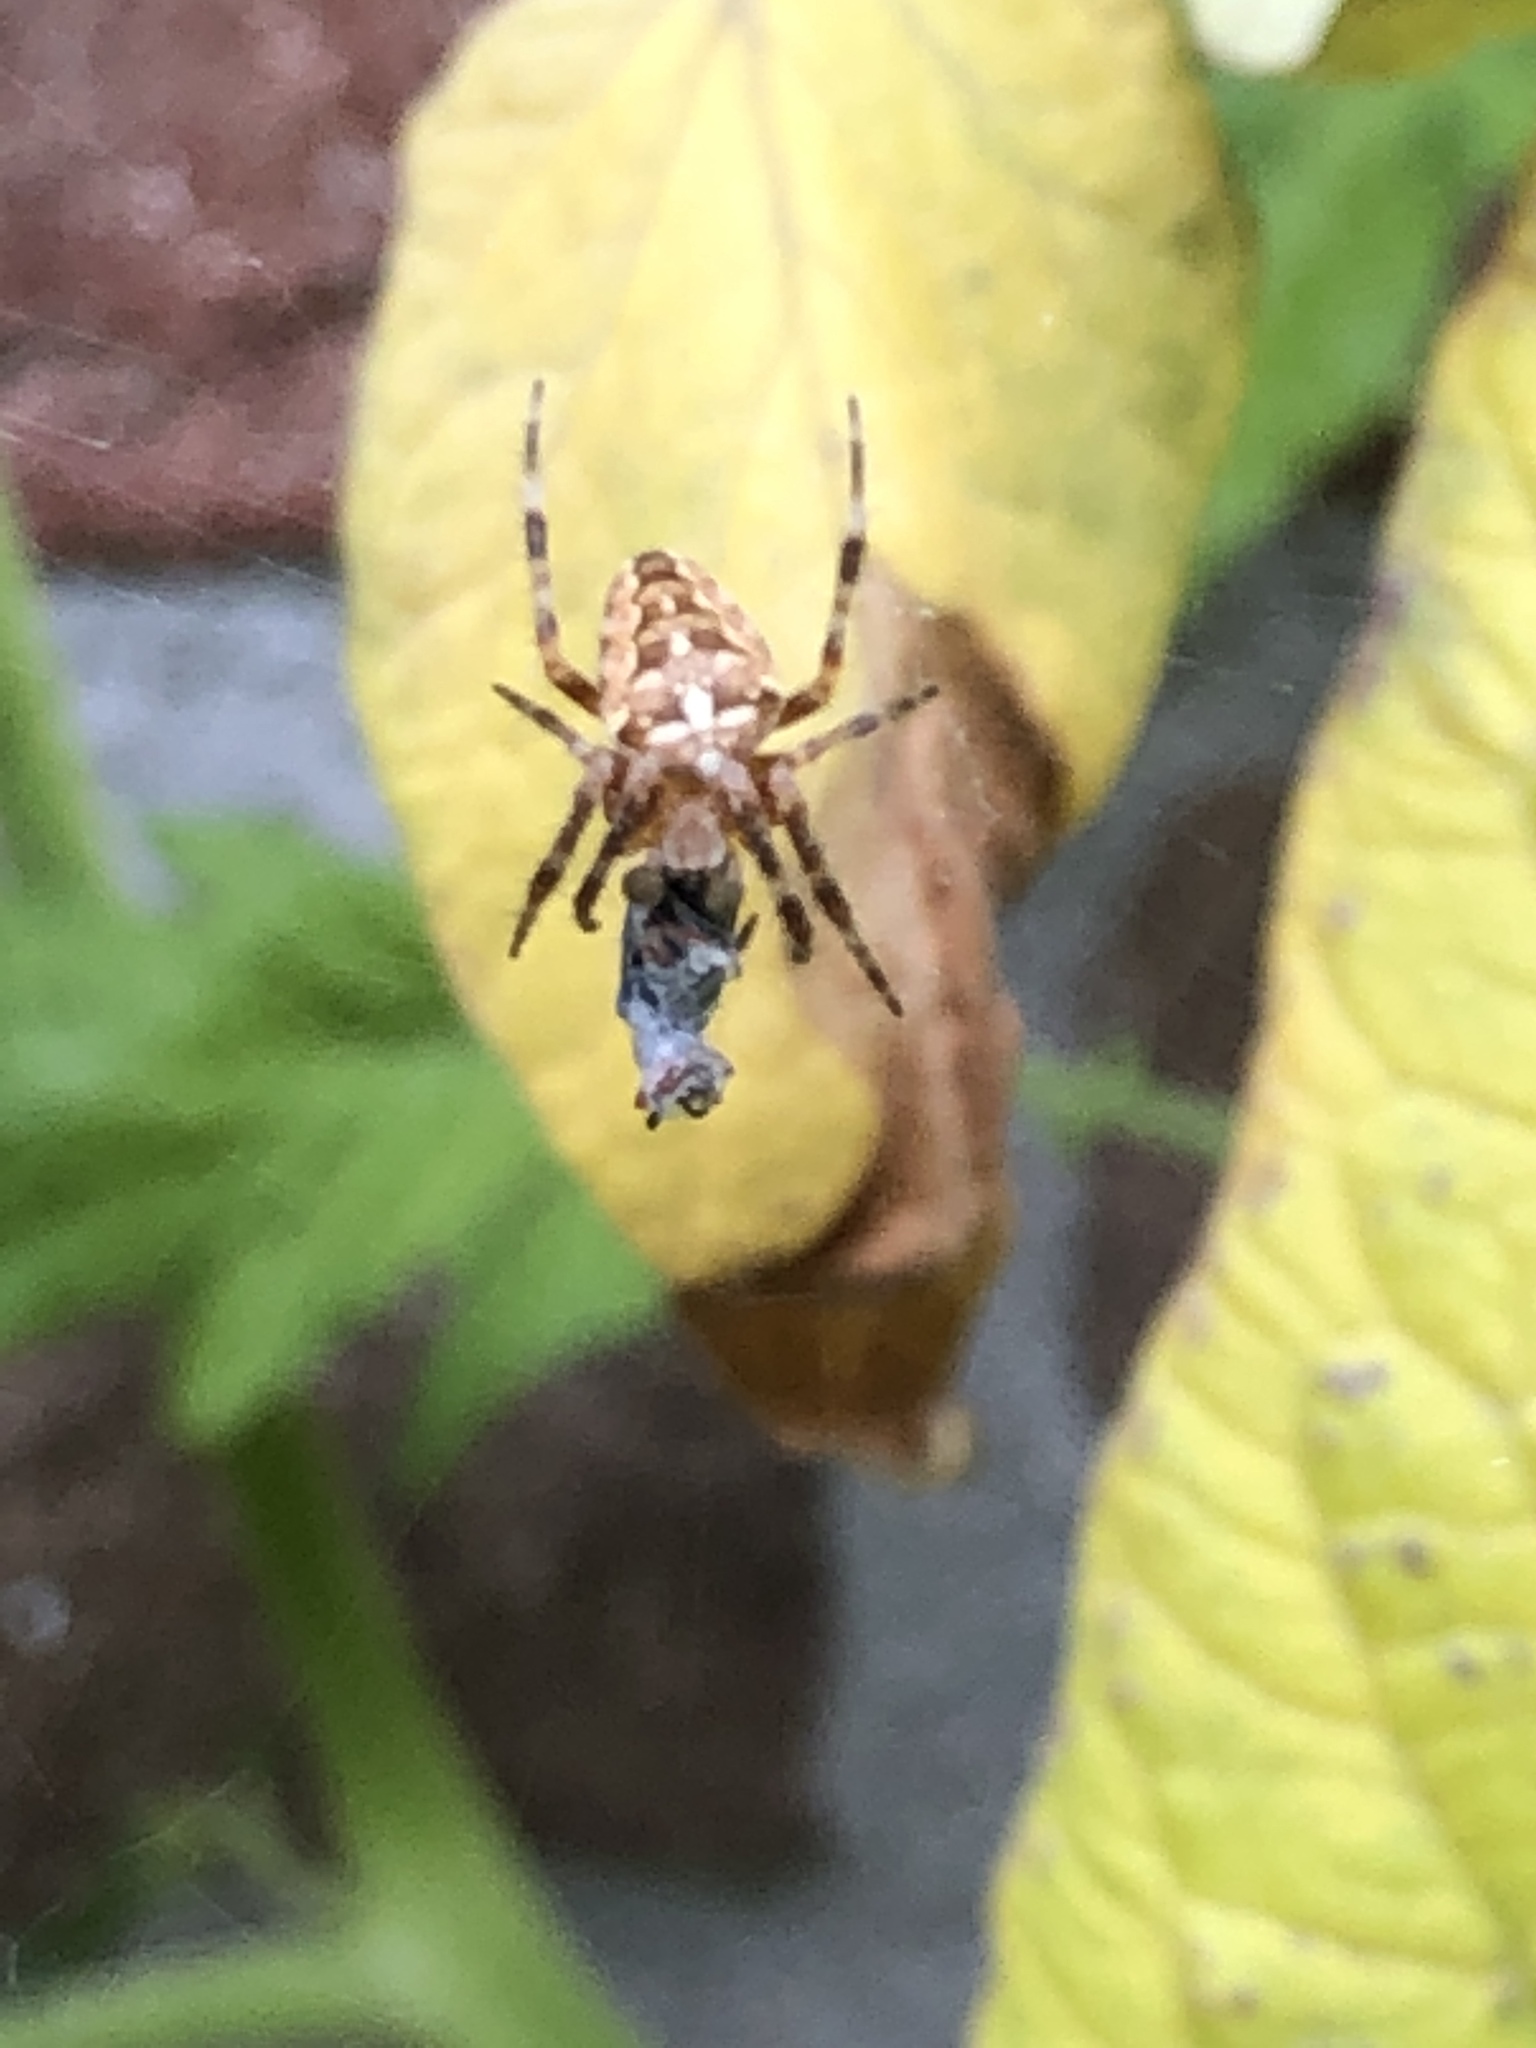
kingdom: Animalia
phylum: Arthropoda
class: Arachnida
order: Araneae
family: Araneidae
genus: Araneus
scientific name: Araneus diadematus
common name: Cross orbweaver
